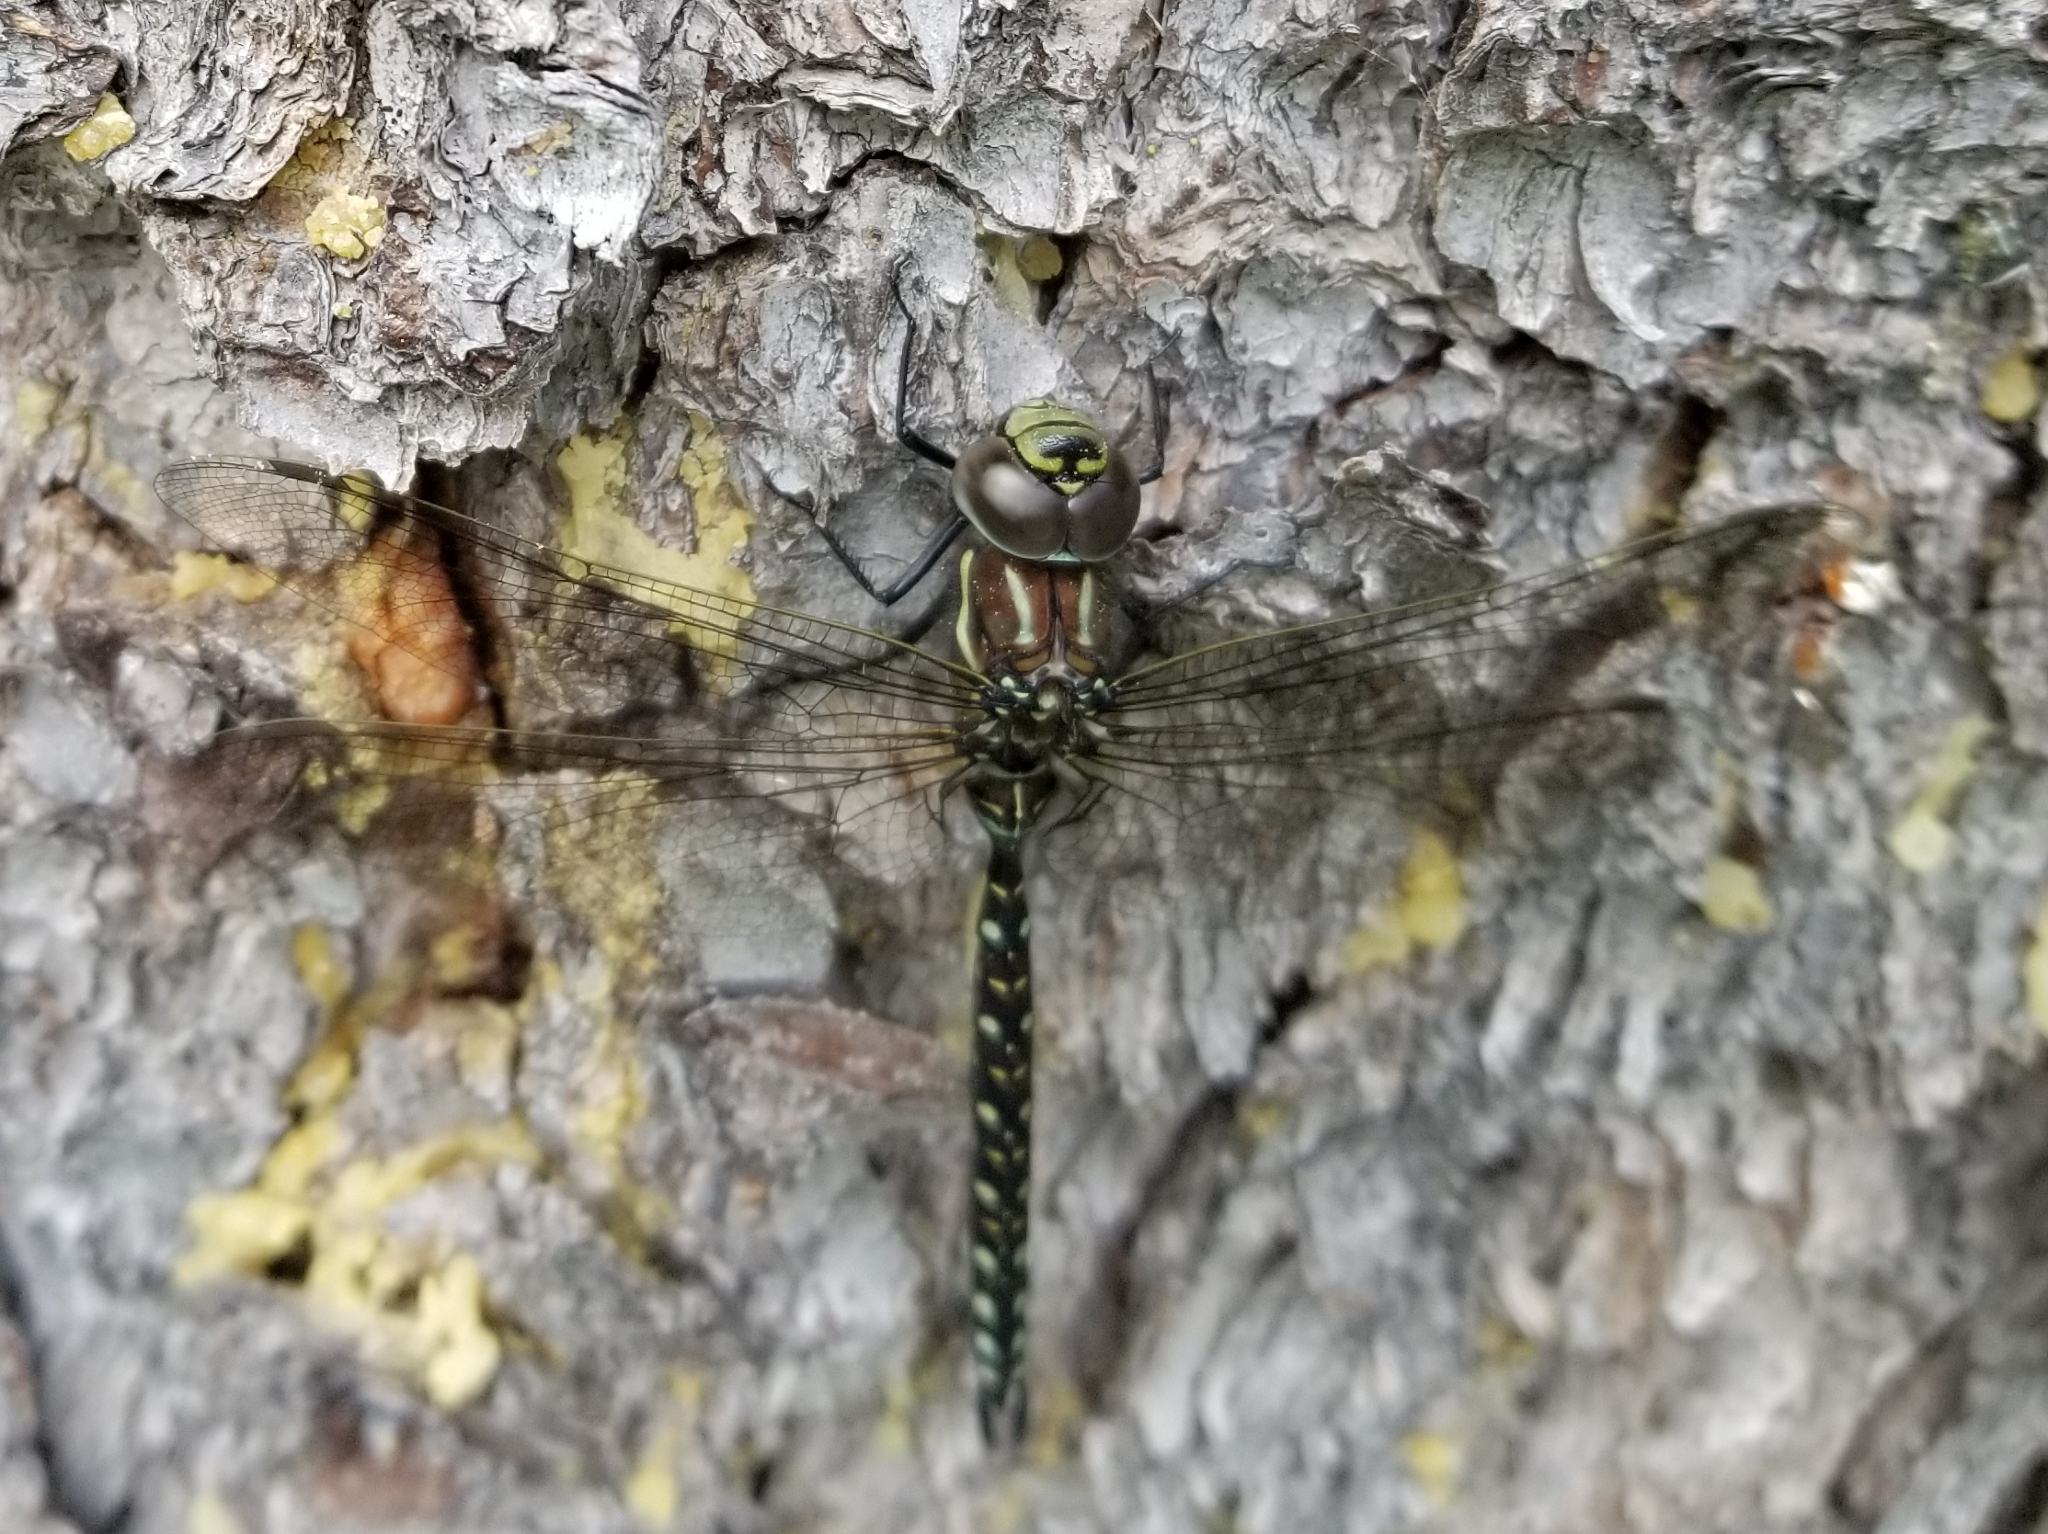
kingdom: Animalia
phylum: Arthropoda
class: Insecta
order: Odonata
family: Aeshnidae
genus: Aeshna
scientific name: Aeshna juncea
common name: Moorland hawker
